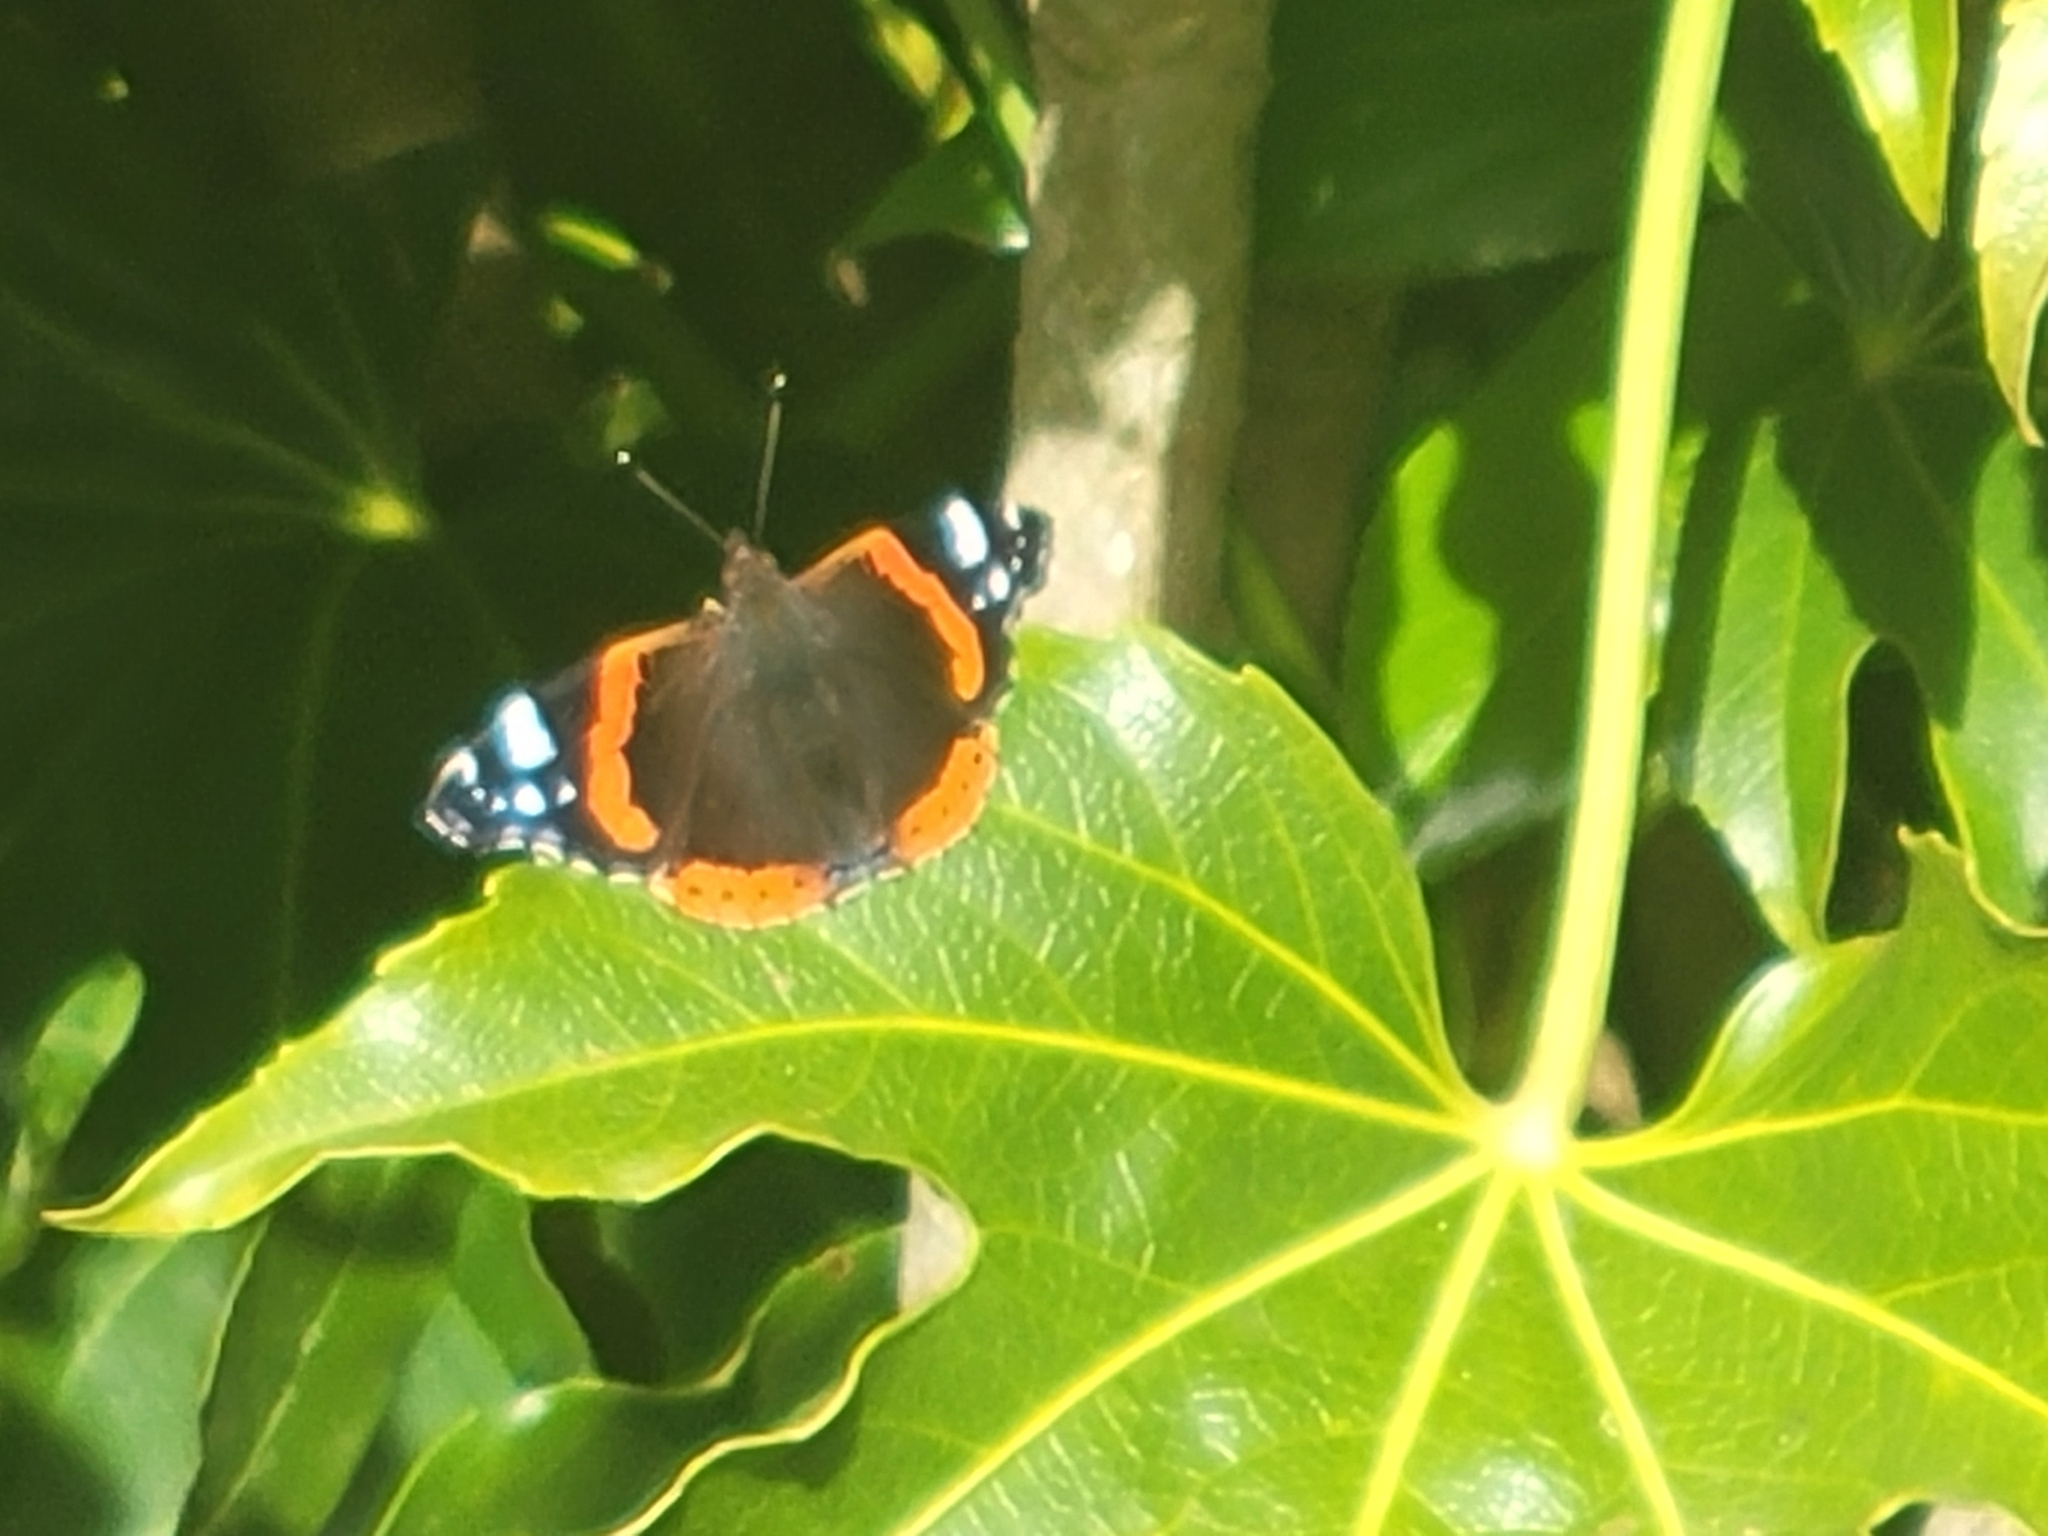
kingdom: Animalia
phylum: Arthropoda
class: Insecta
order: Lepidoptera
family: Nymphalidae
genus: Vanessa
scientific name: Vanessa atalanta
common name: Red admiral
